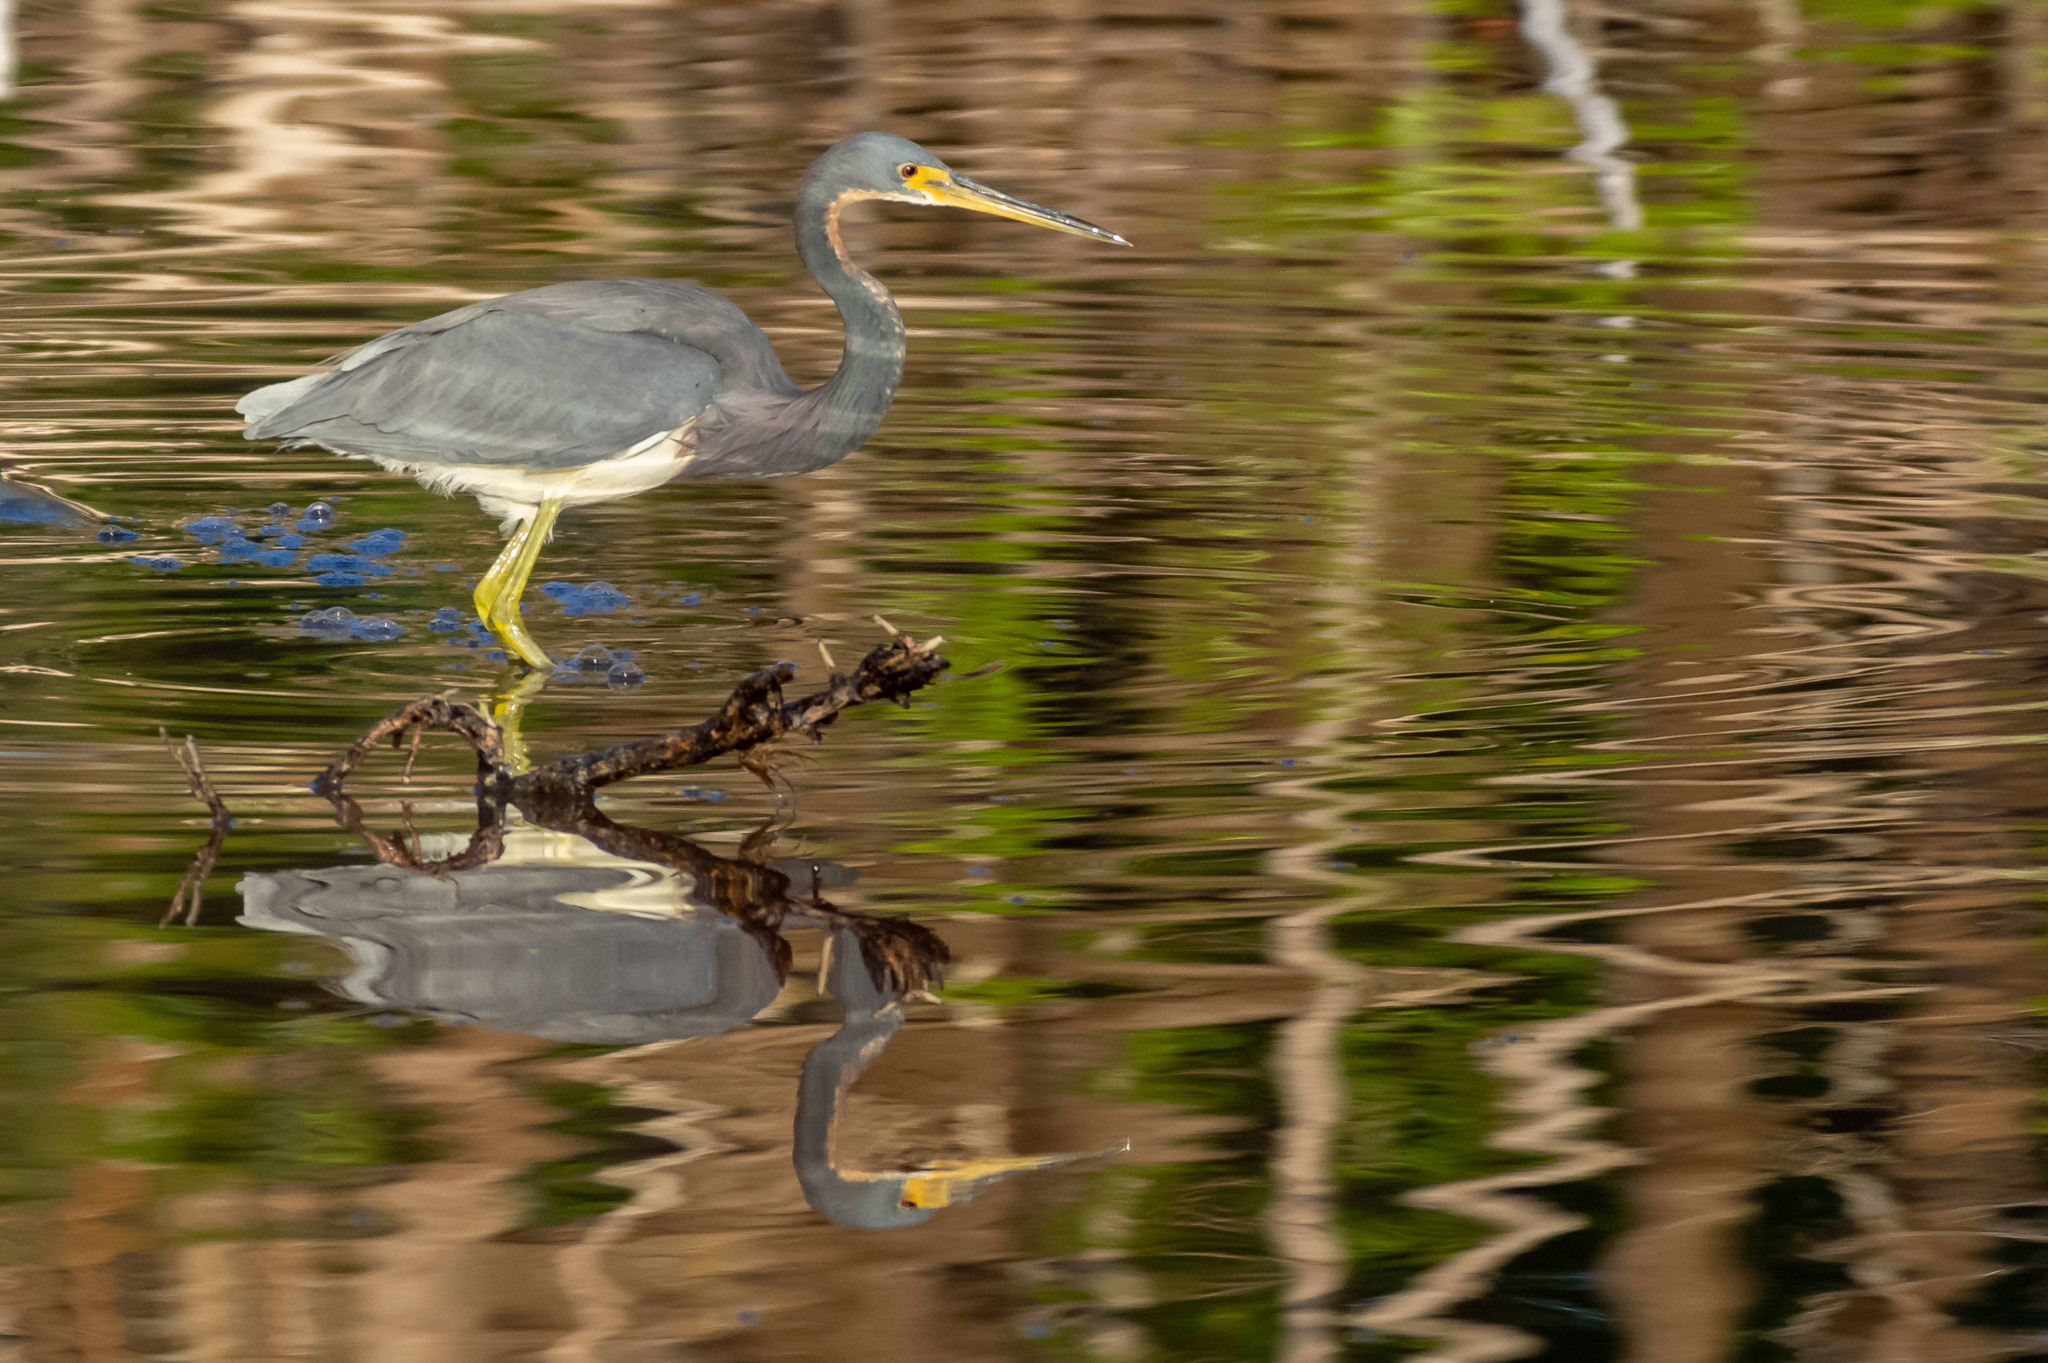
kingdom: Animalia
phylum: Chordata
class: Aves
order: Pelecaniformes
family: Ardeidae
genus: Egretta
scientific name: Egretta tricolor
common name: Tricolored heron
